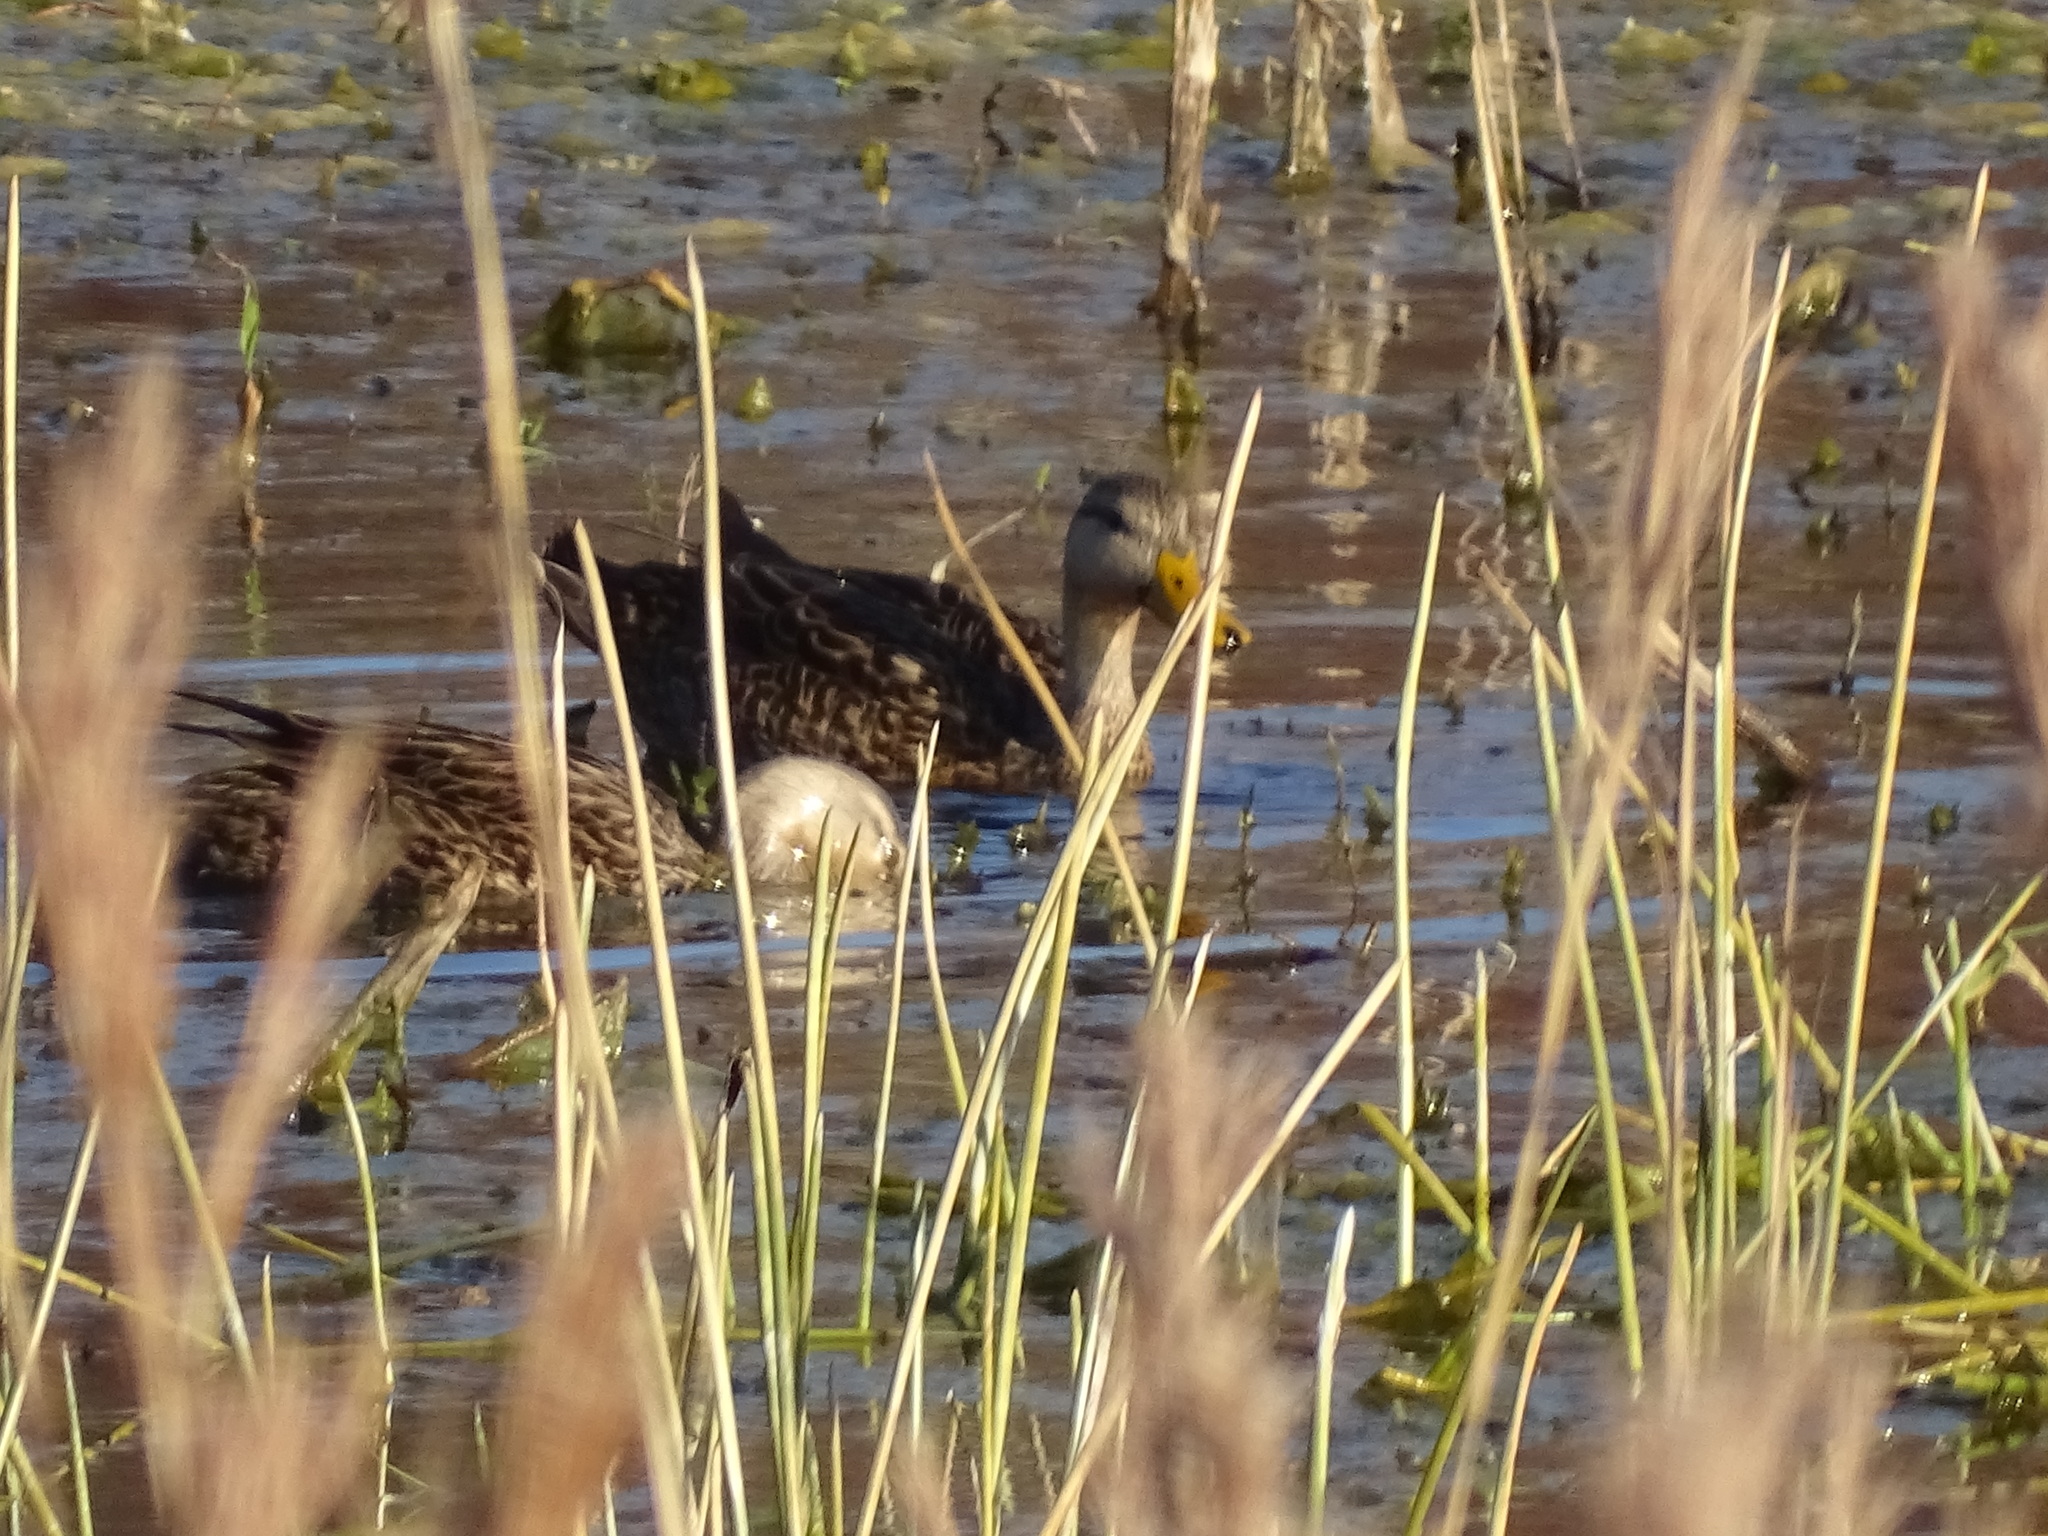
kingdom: Animalia
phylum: Chordata
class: Aves
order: Anseriformes
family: Anatidae
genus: Anas
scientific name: Anas fulvigula
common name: Mottled duck
